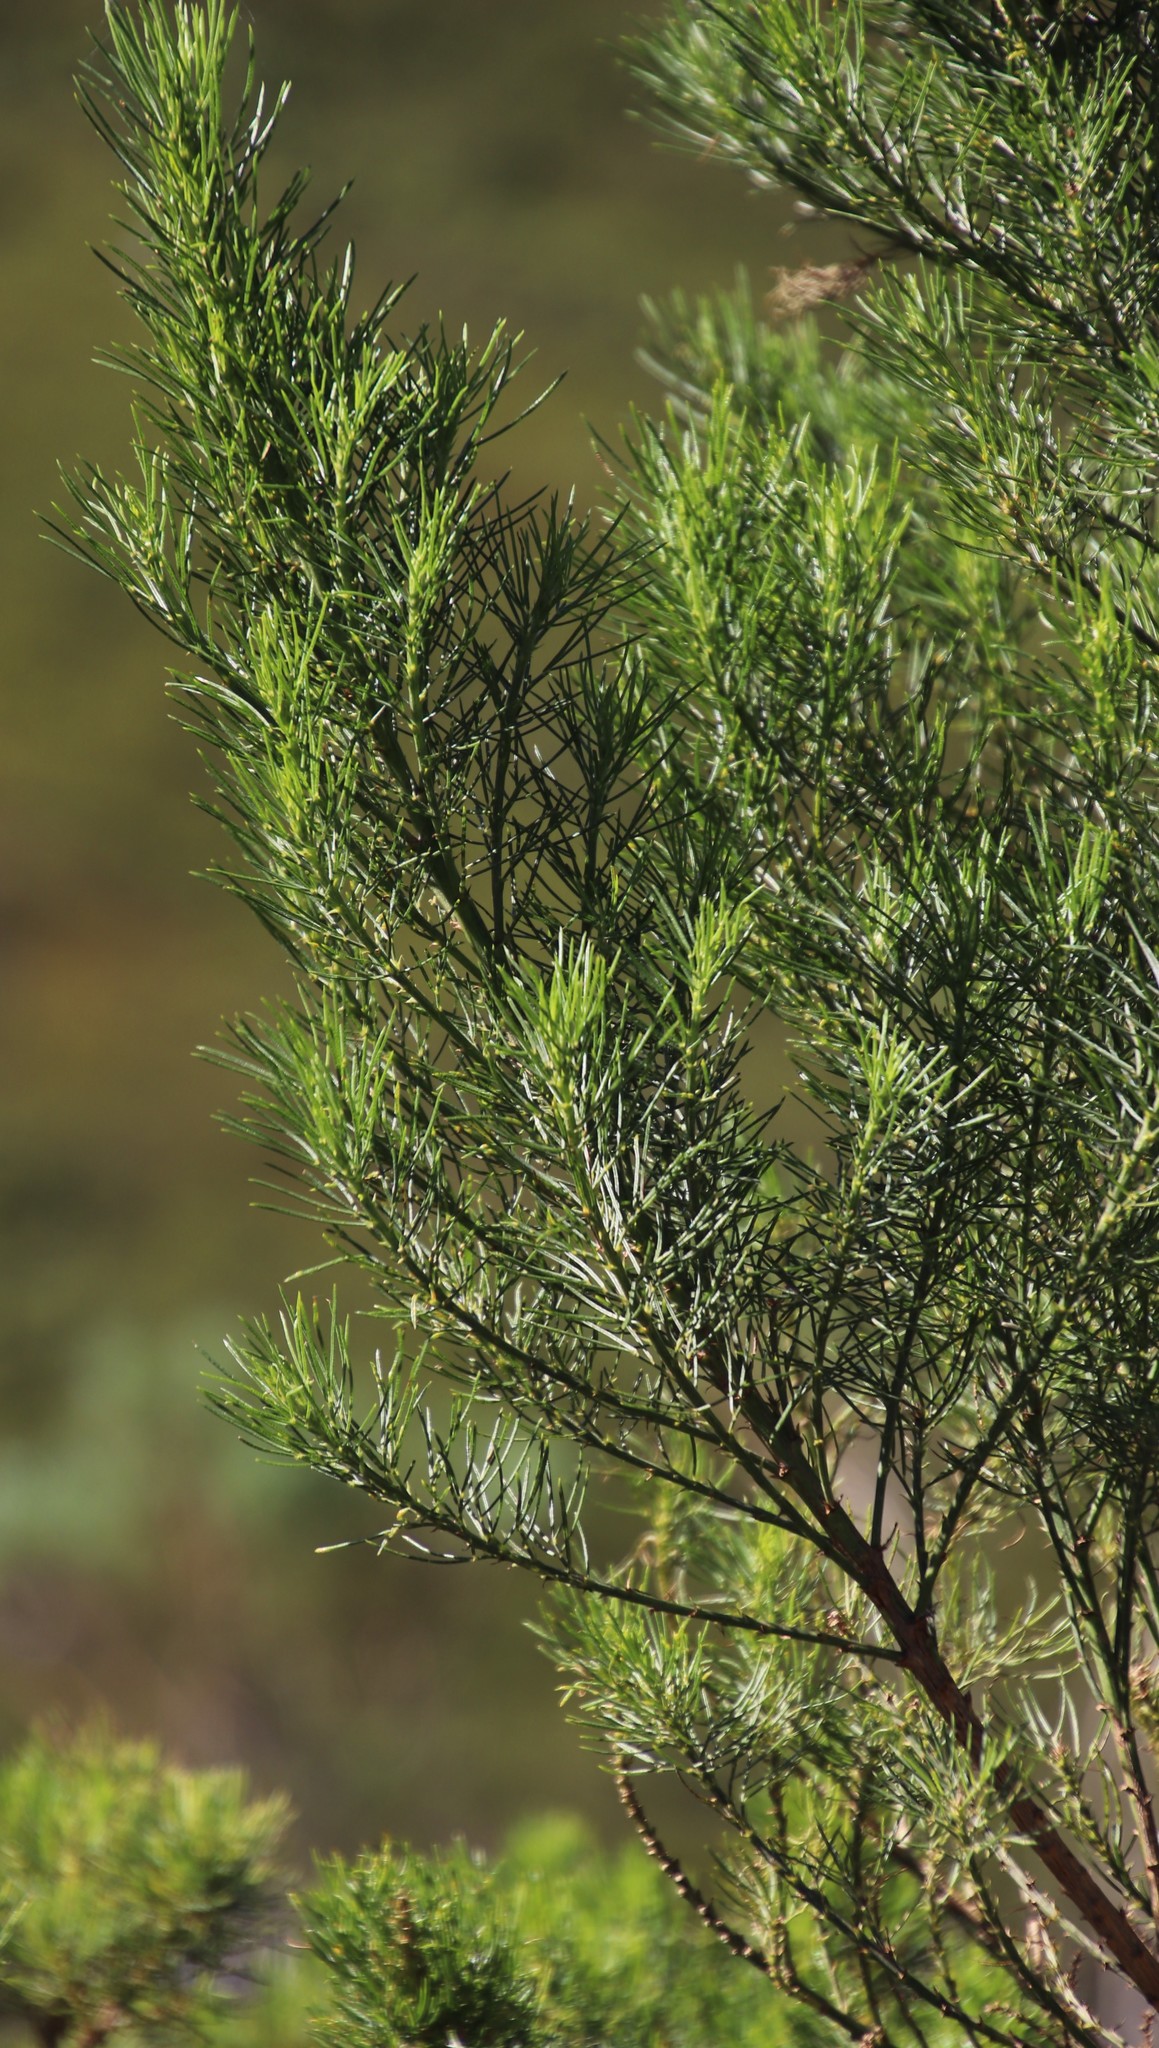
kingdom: Plantae
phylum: Tracheophyta
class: Magnoliopsida
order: Fabales
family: Fabaceae
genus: Psoralea
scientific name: Psoralea pinnata
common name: African scurfpea
